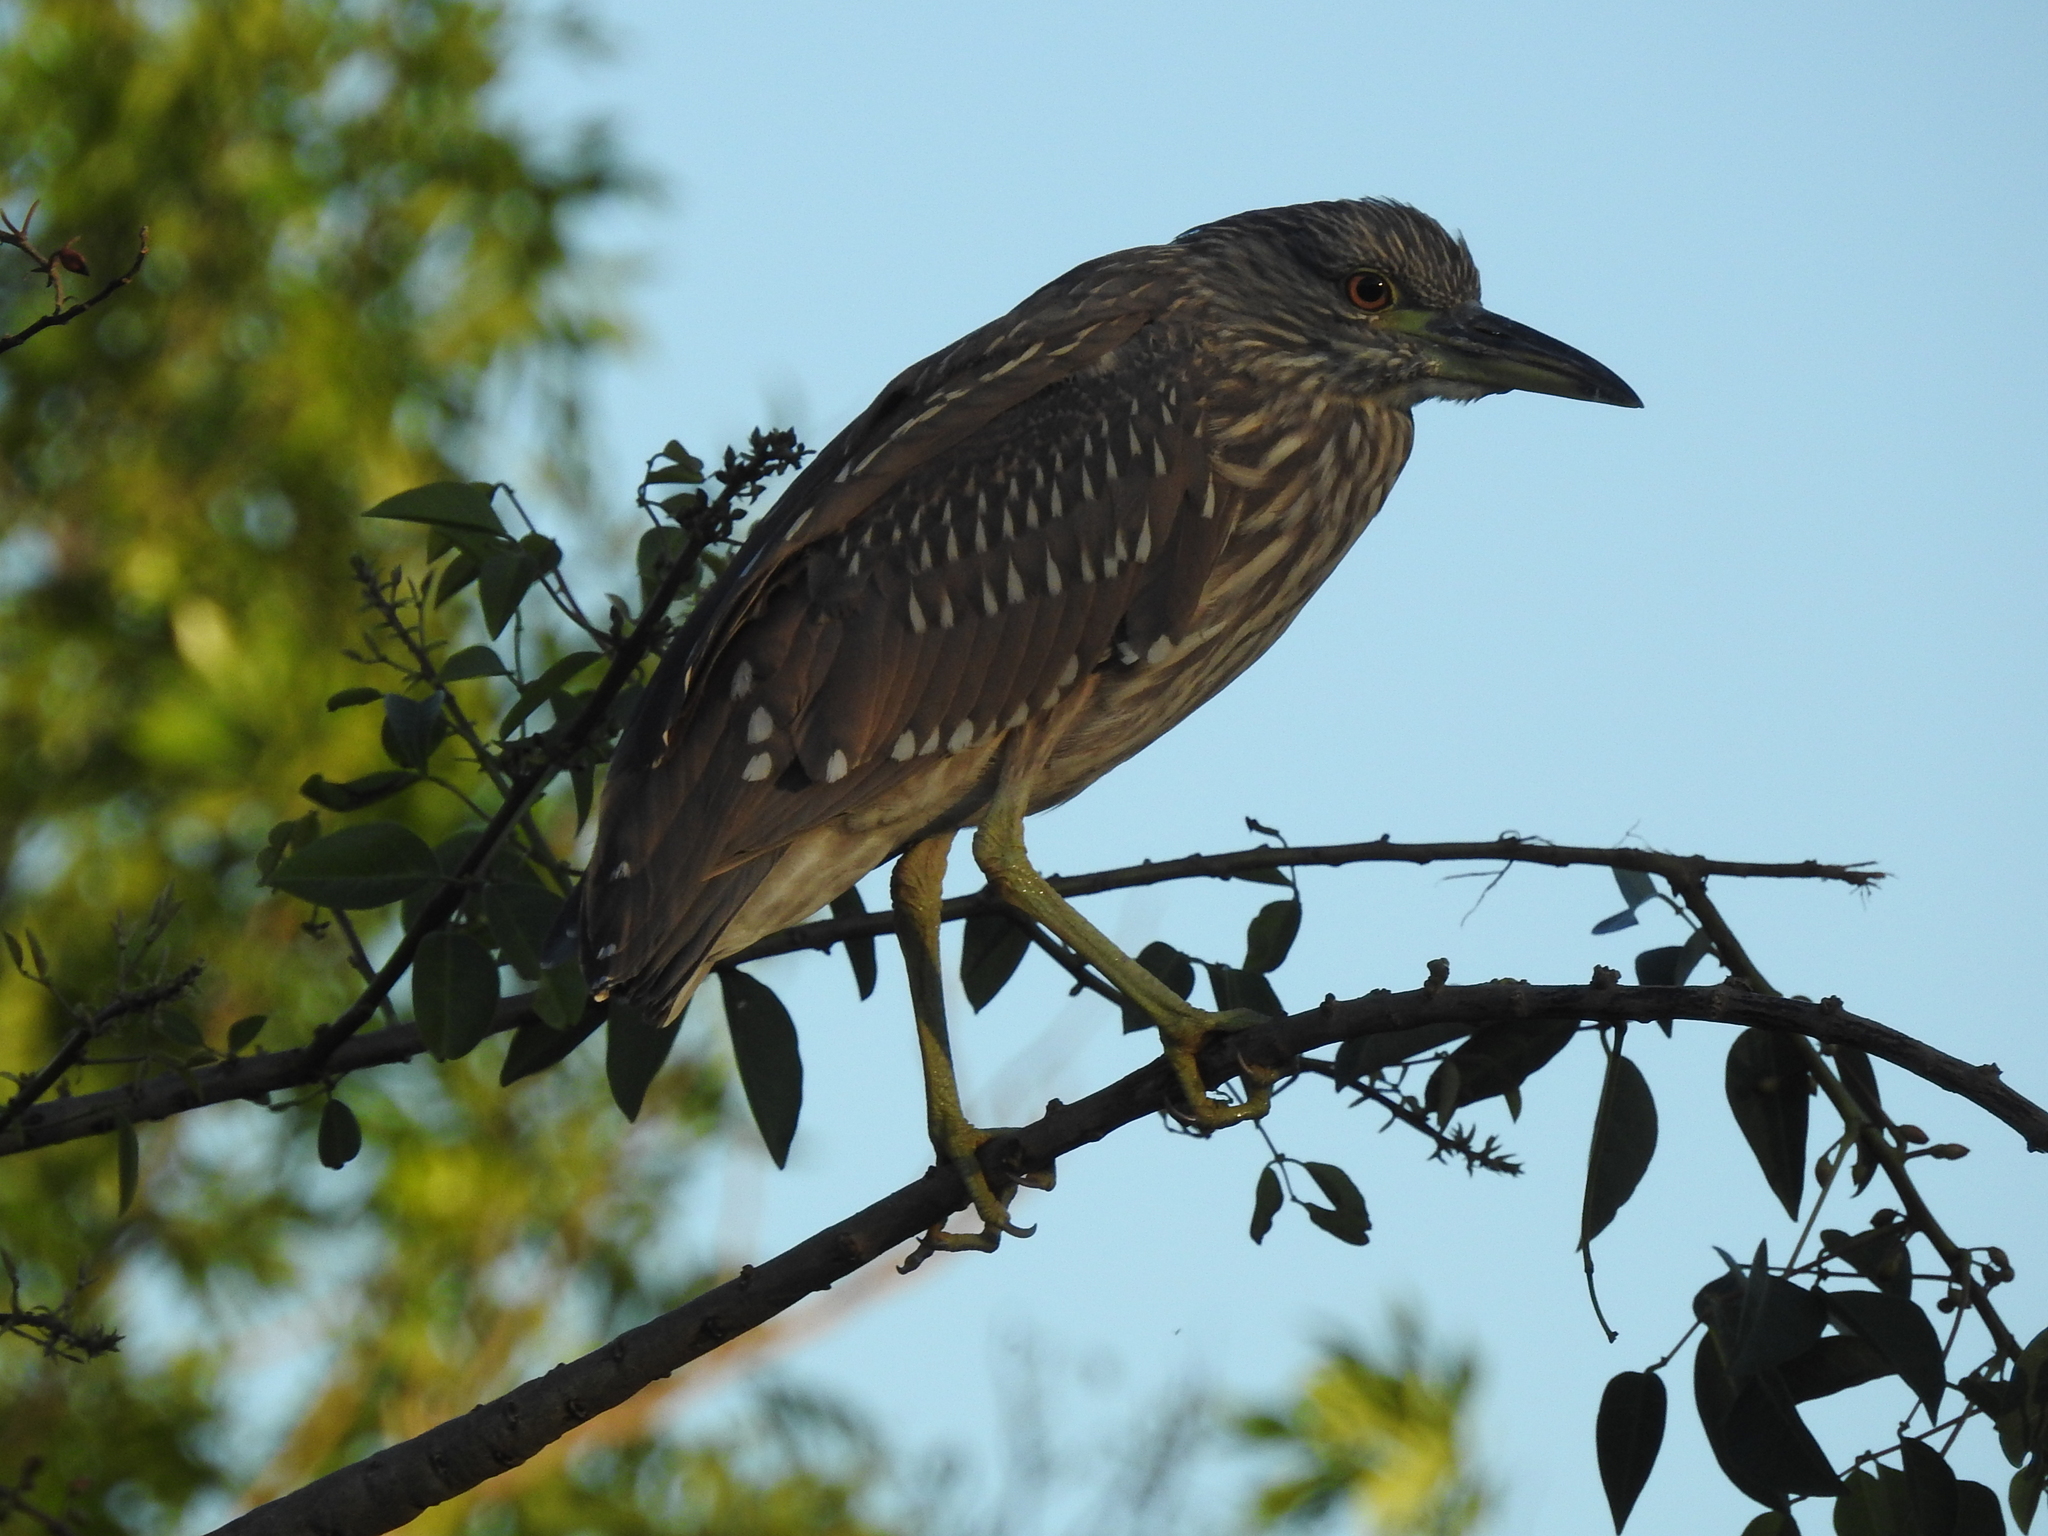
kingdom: Animalia
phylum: Chordata
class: Aves
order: Pelecaniformes
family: Ardeidae
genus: Nycticorax
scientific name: Nycticorax nycticorax
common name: Black-crowned night heron
